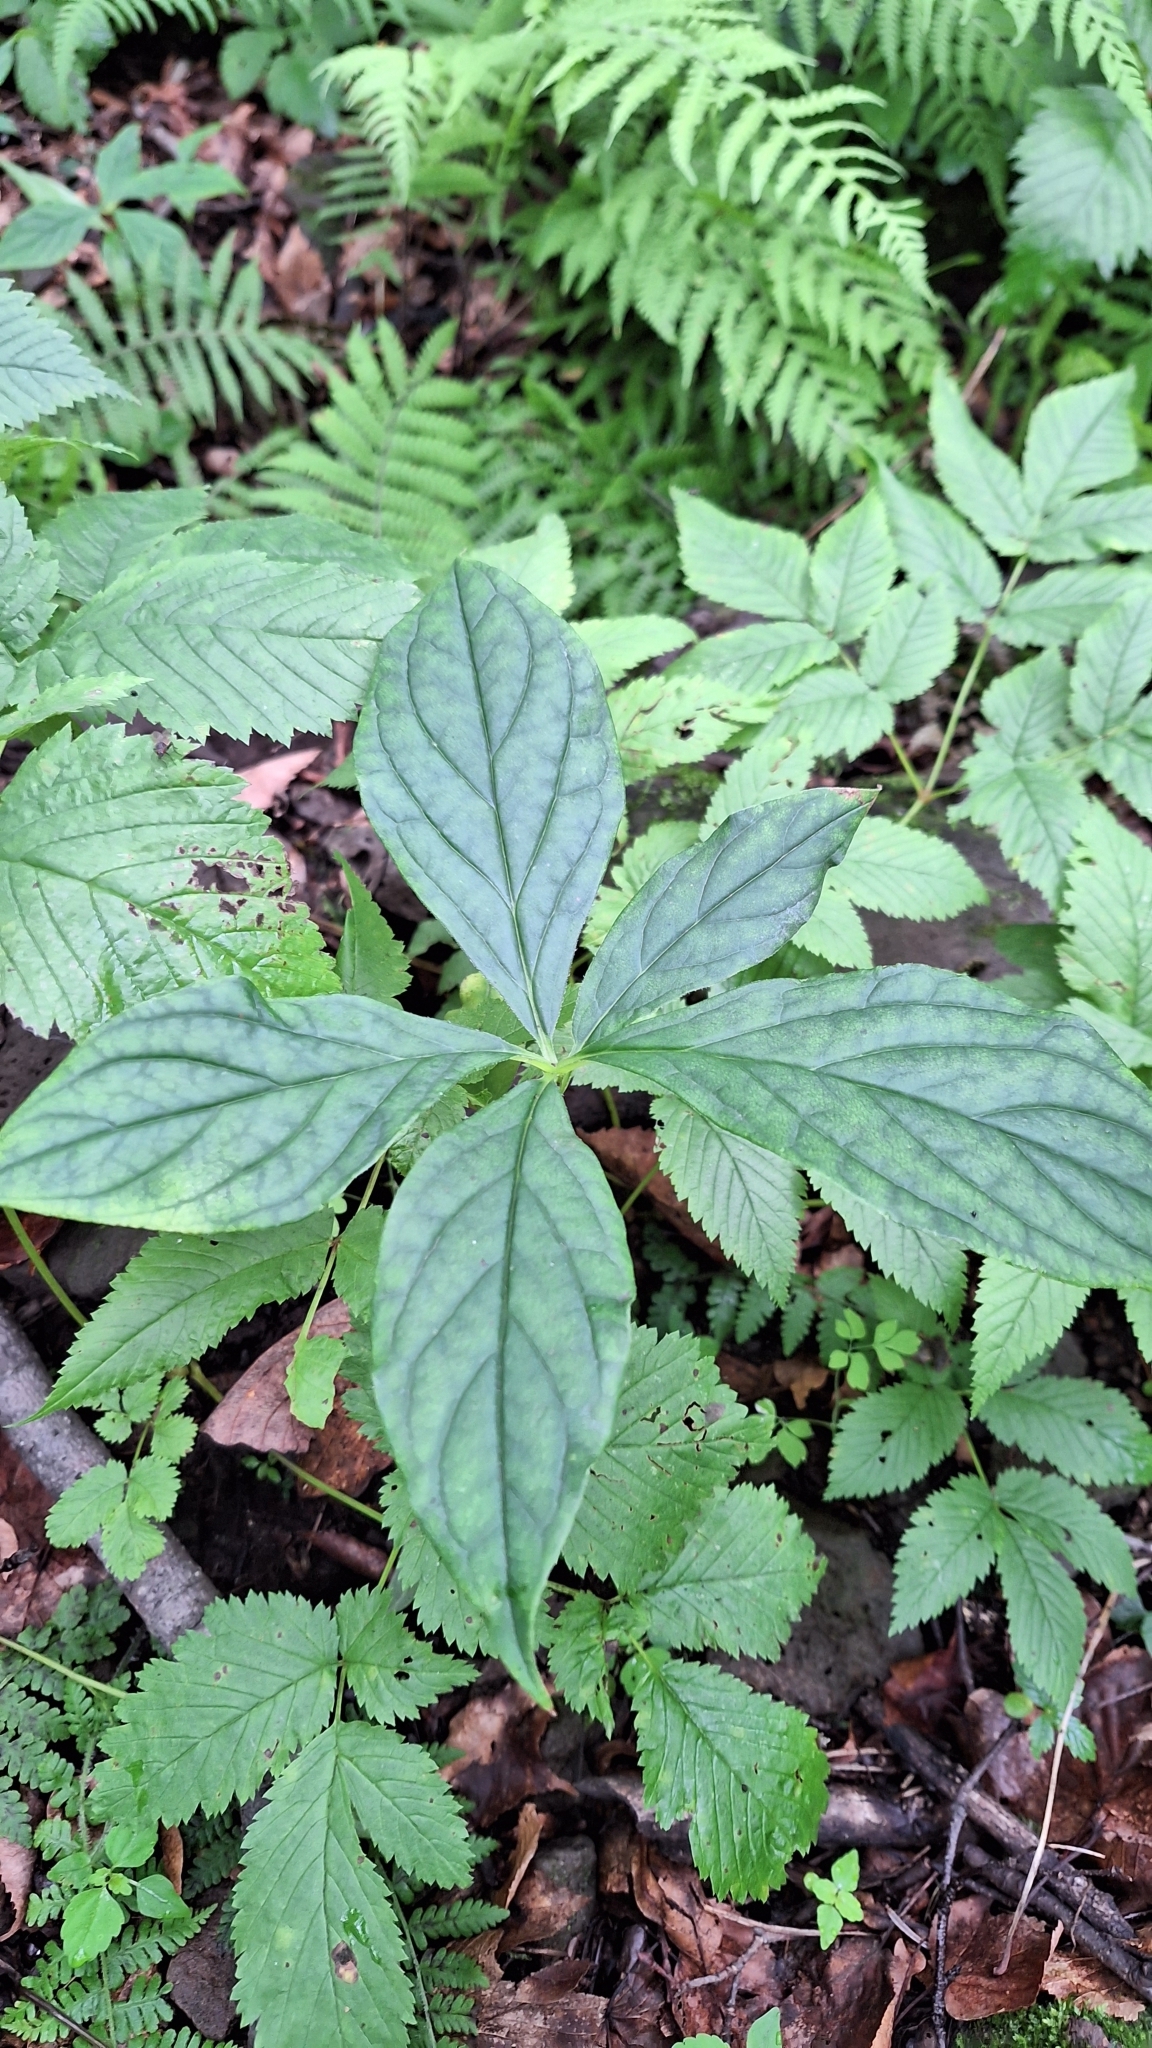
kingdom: Plantae
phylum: Tracheophyta
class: Magnoliopsida
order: Boraginales
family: Boraginaceae
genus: Brachybotrys
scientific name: Brachybotrys paridiformis
